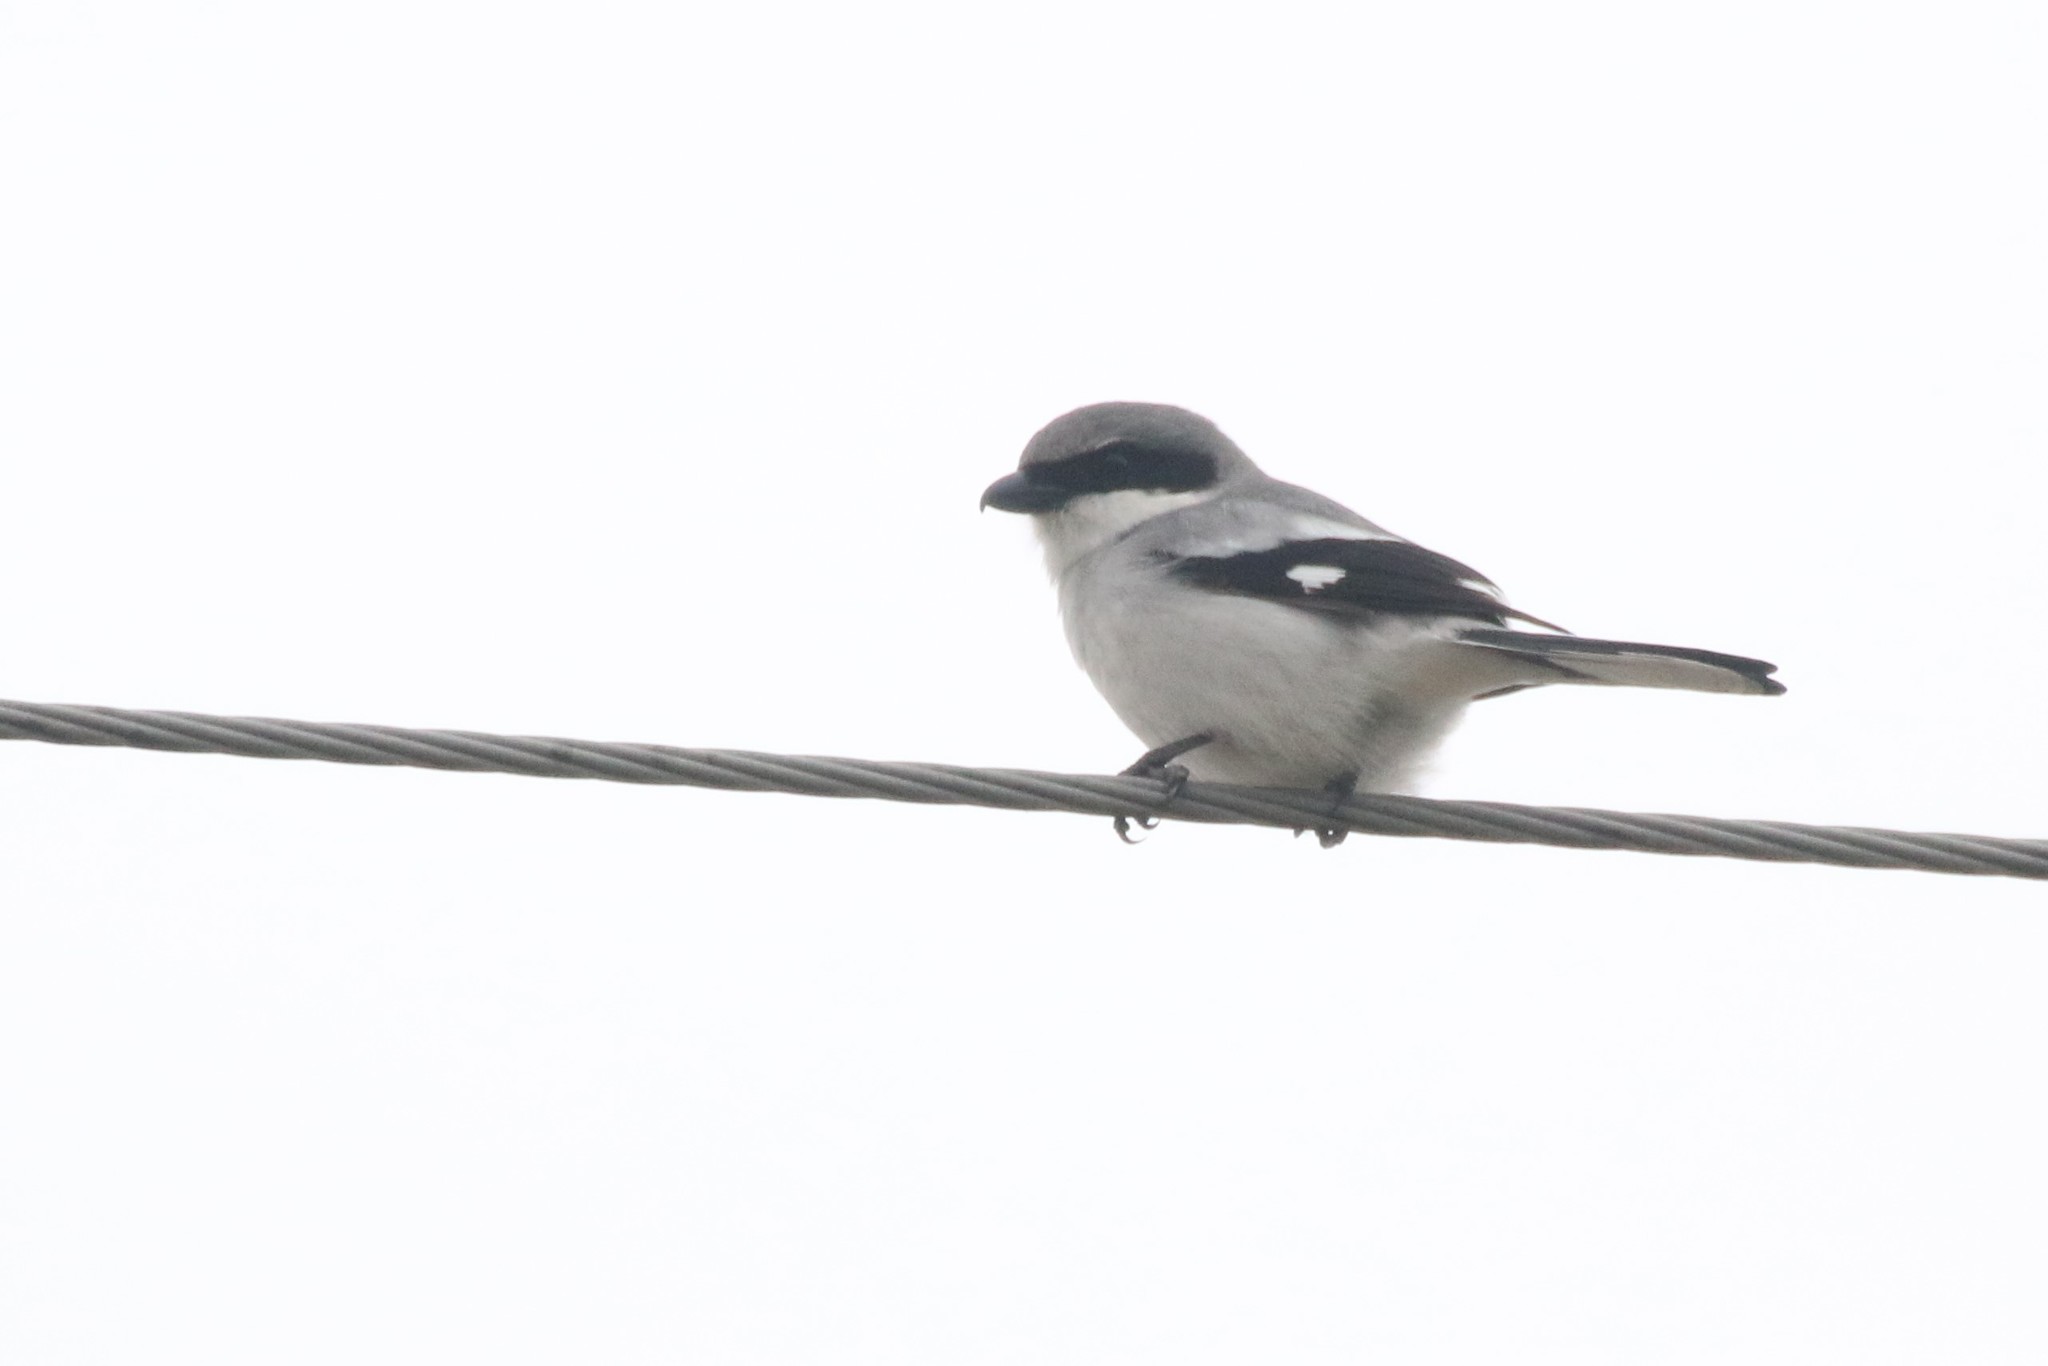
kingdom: Animalia
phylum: Chordata
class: Aves
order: Passeriformes
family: Laniidae
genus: Lanius
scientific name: Lanius ludovicianus
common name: Loggerhead shrike
